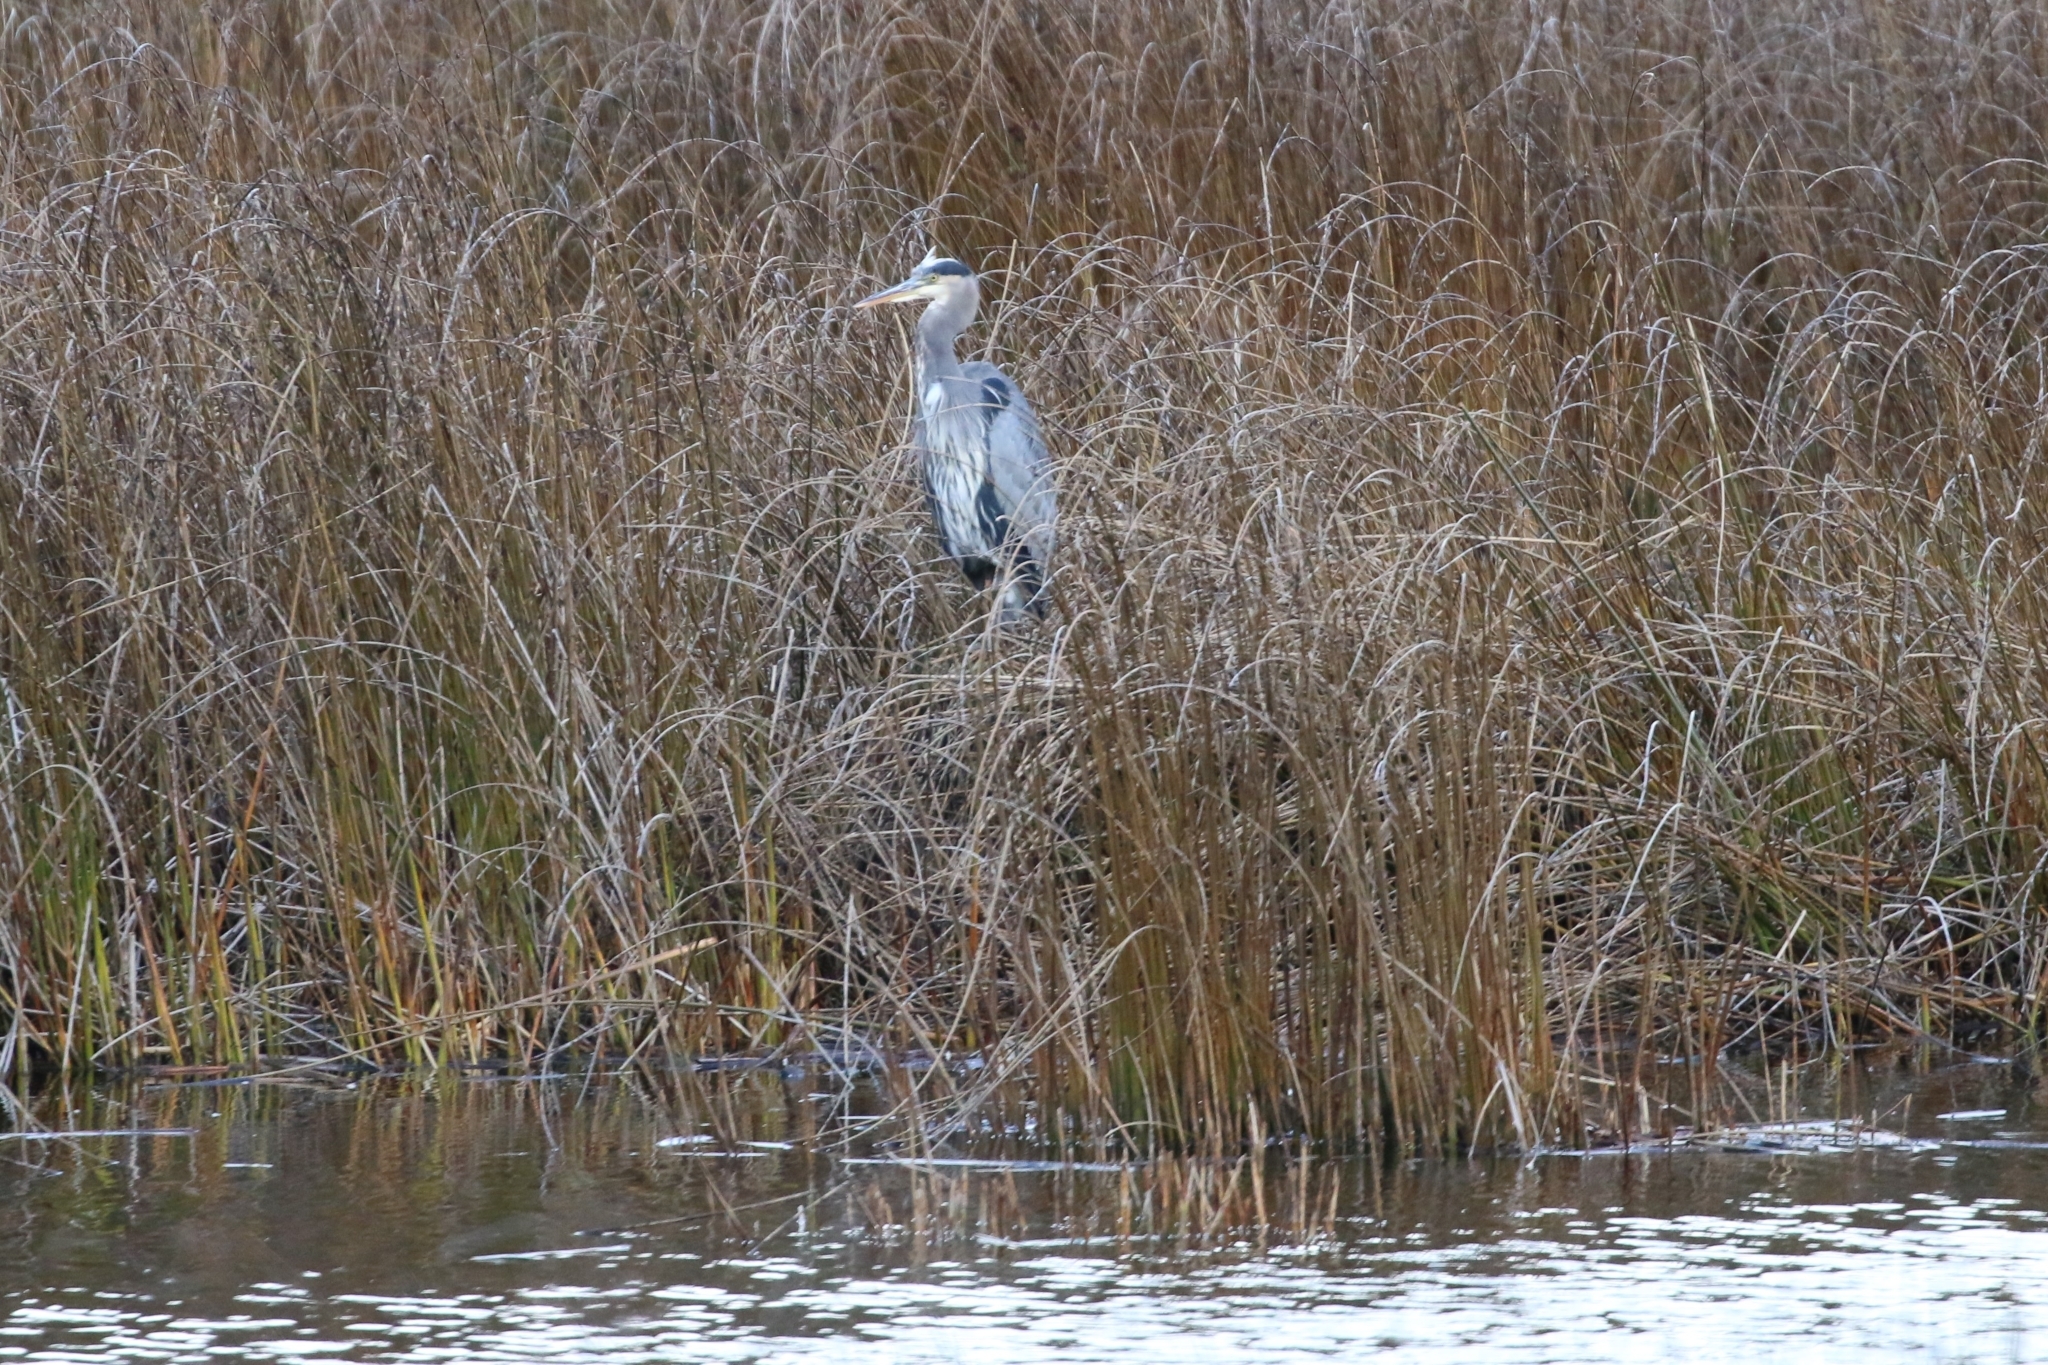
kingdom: Animalia
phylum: Chordata
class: Aves
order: Pelecaniformes
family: Ardeidae
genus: Ardea
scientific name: Ardea herodias
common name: Great blue heron
